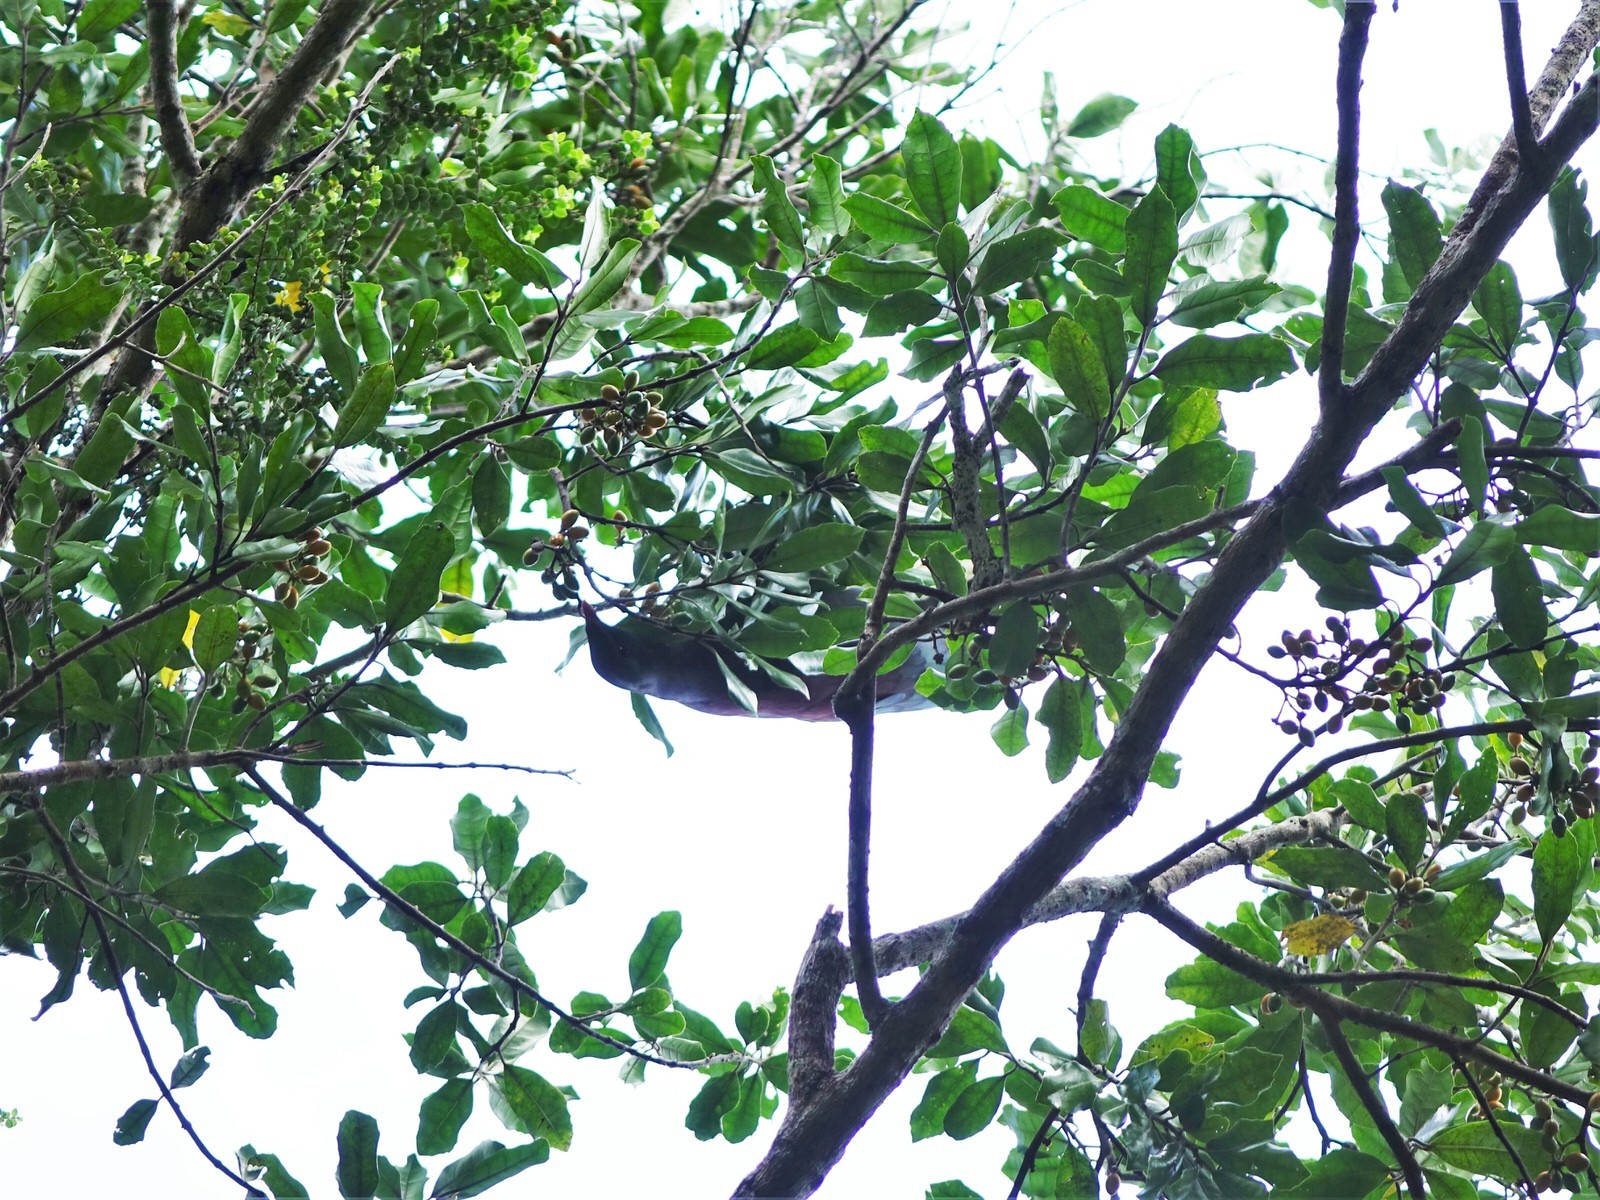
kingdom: Animalia
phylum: Chordata
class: Aves
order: Columbiformes
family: Columbidae
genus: Hemiphaga
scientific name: Hemiphaga novaeseelandiae
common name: New zealand pigeon
